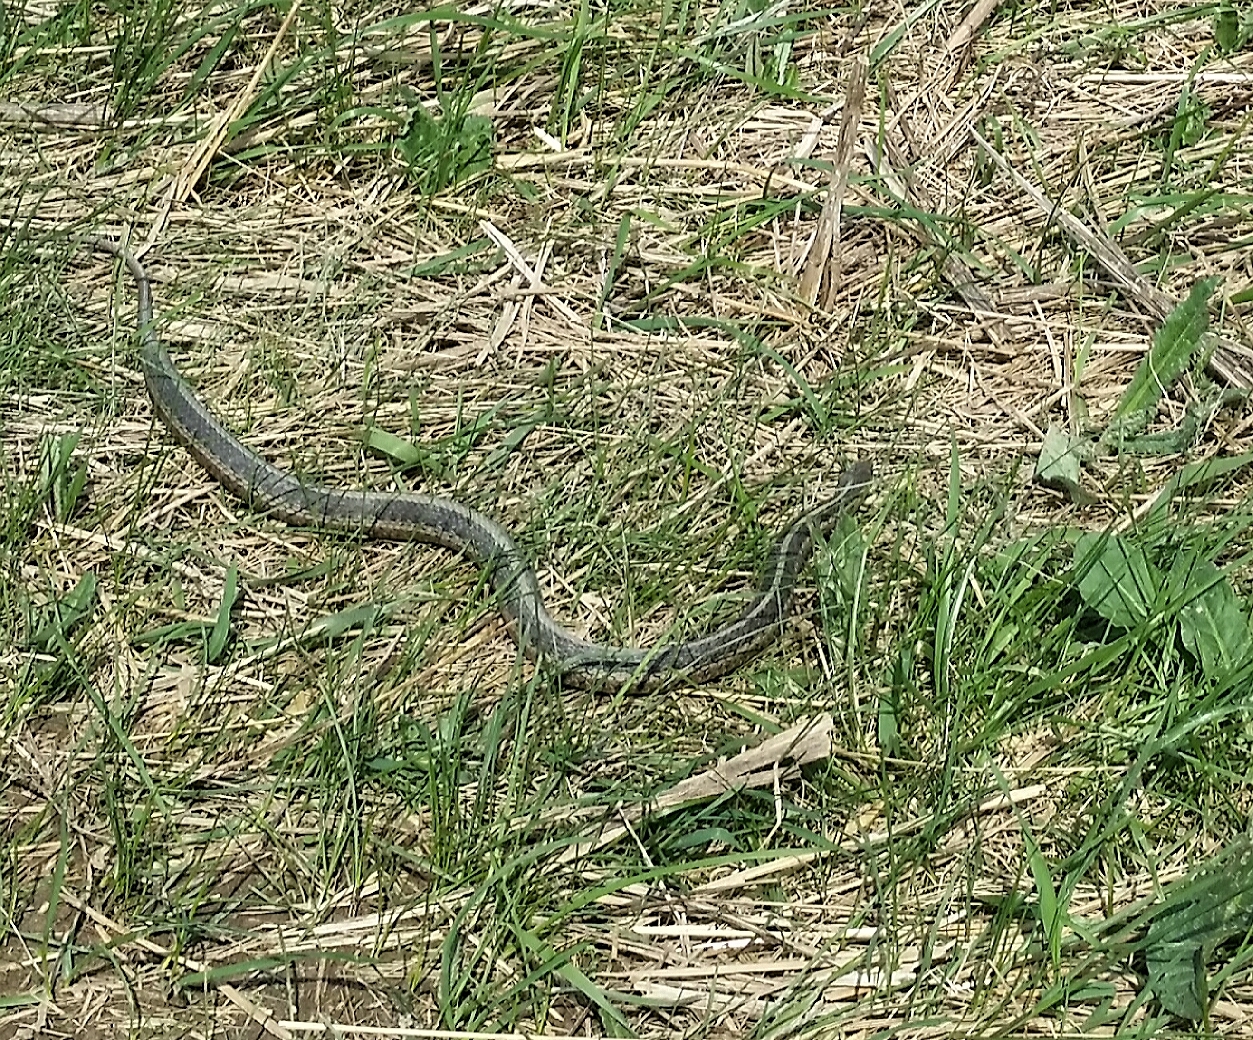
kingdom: Animalia
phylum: Chordata
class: Squamata
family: Colubridae
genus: Thamnophis
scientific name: Thamnophis sirtalis
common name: Common garter snake
